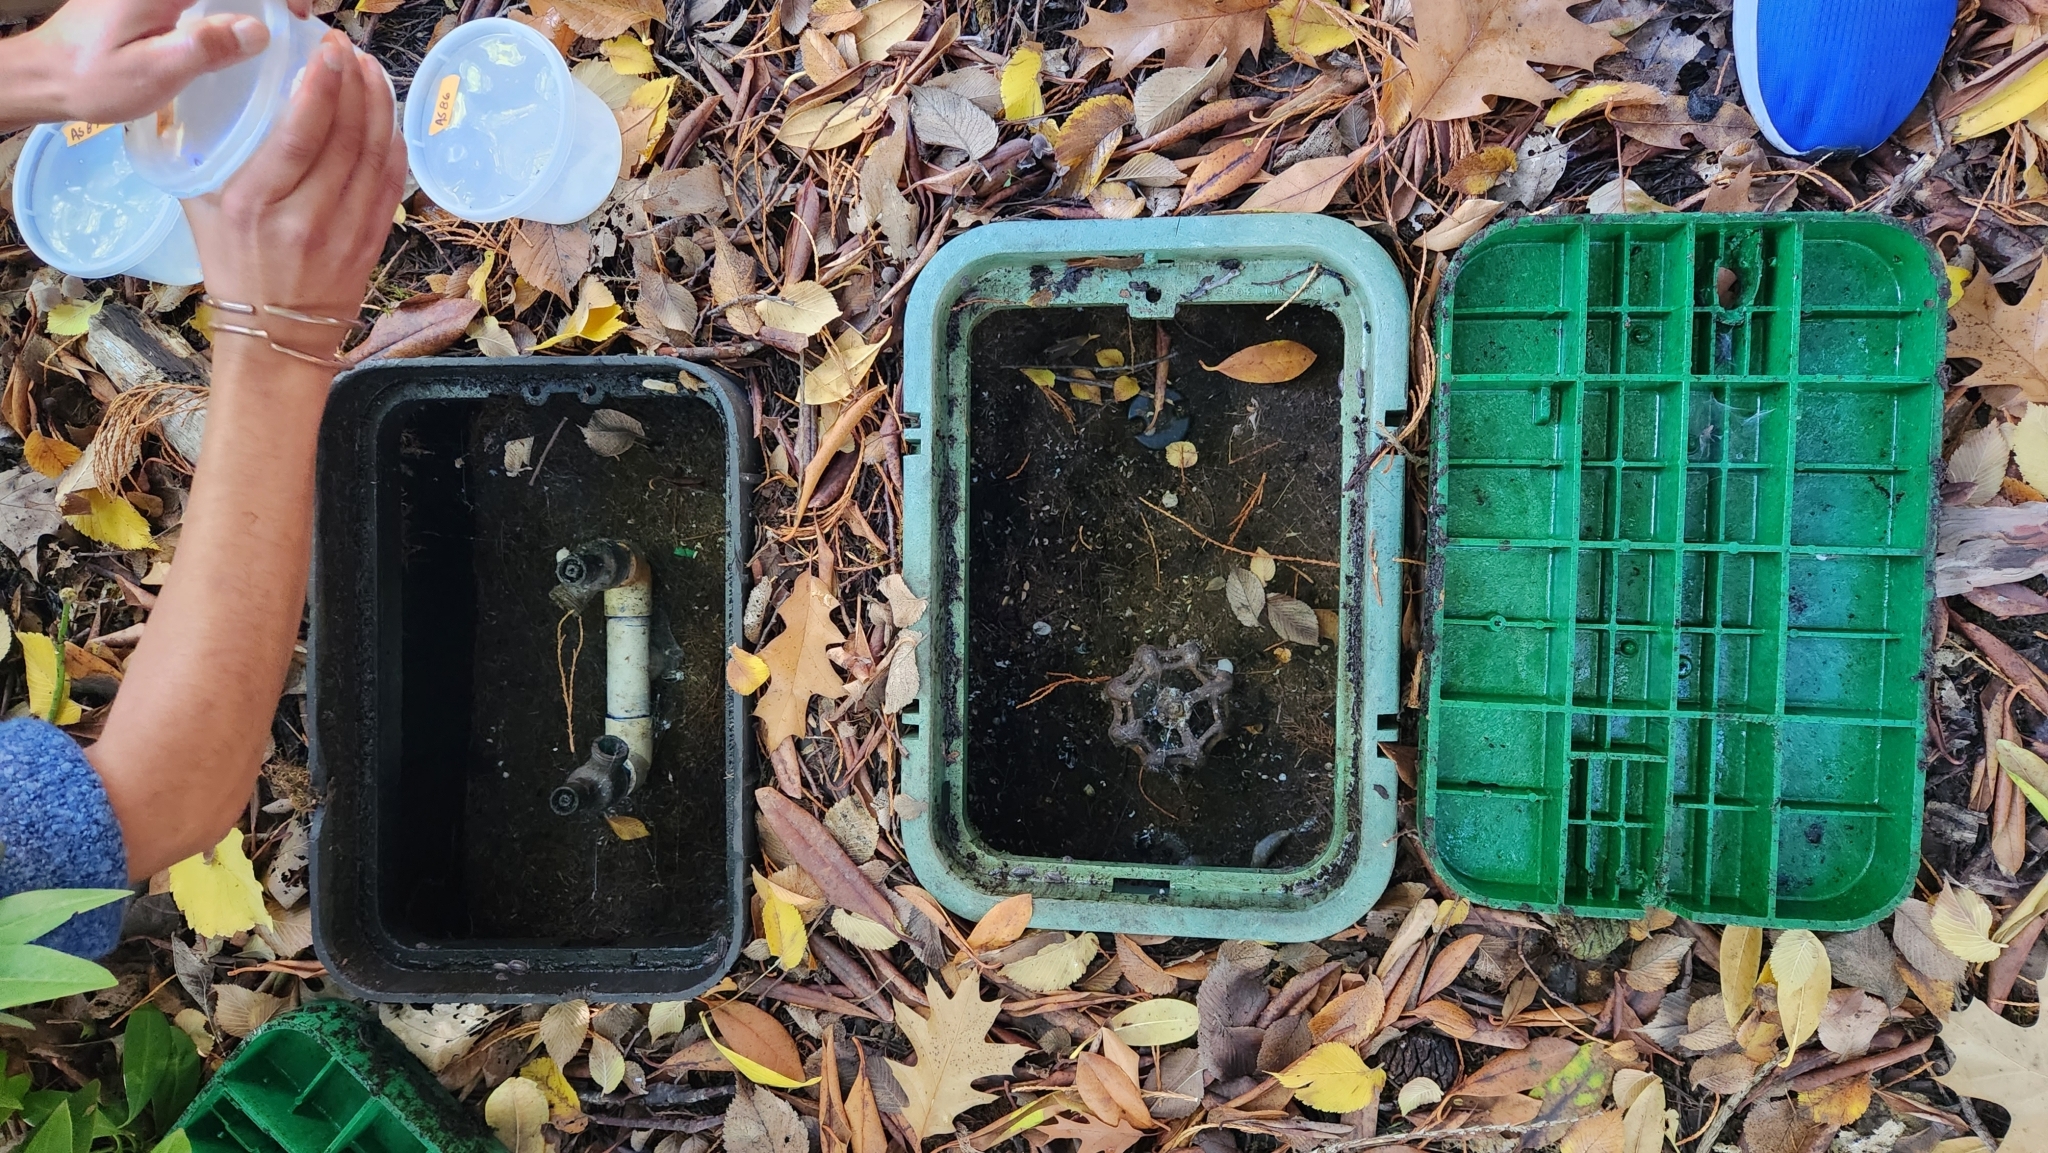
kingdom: Animalia
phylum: Mollusca
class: Gastropoda
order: Stylommatophora
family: Limacidae
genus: Limacus
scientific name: Limacus flavus
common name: Yellow gardenslug
